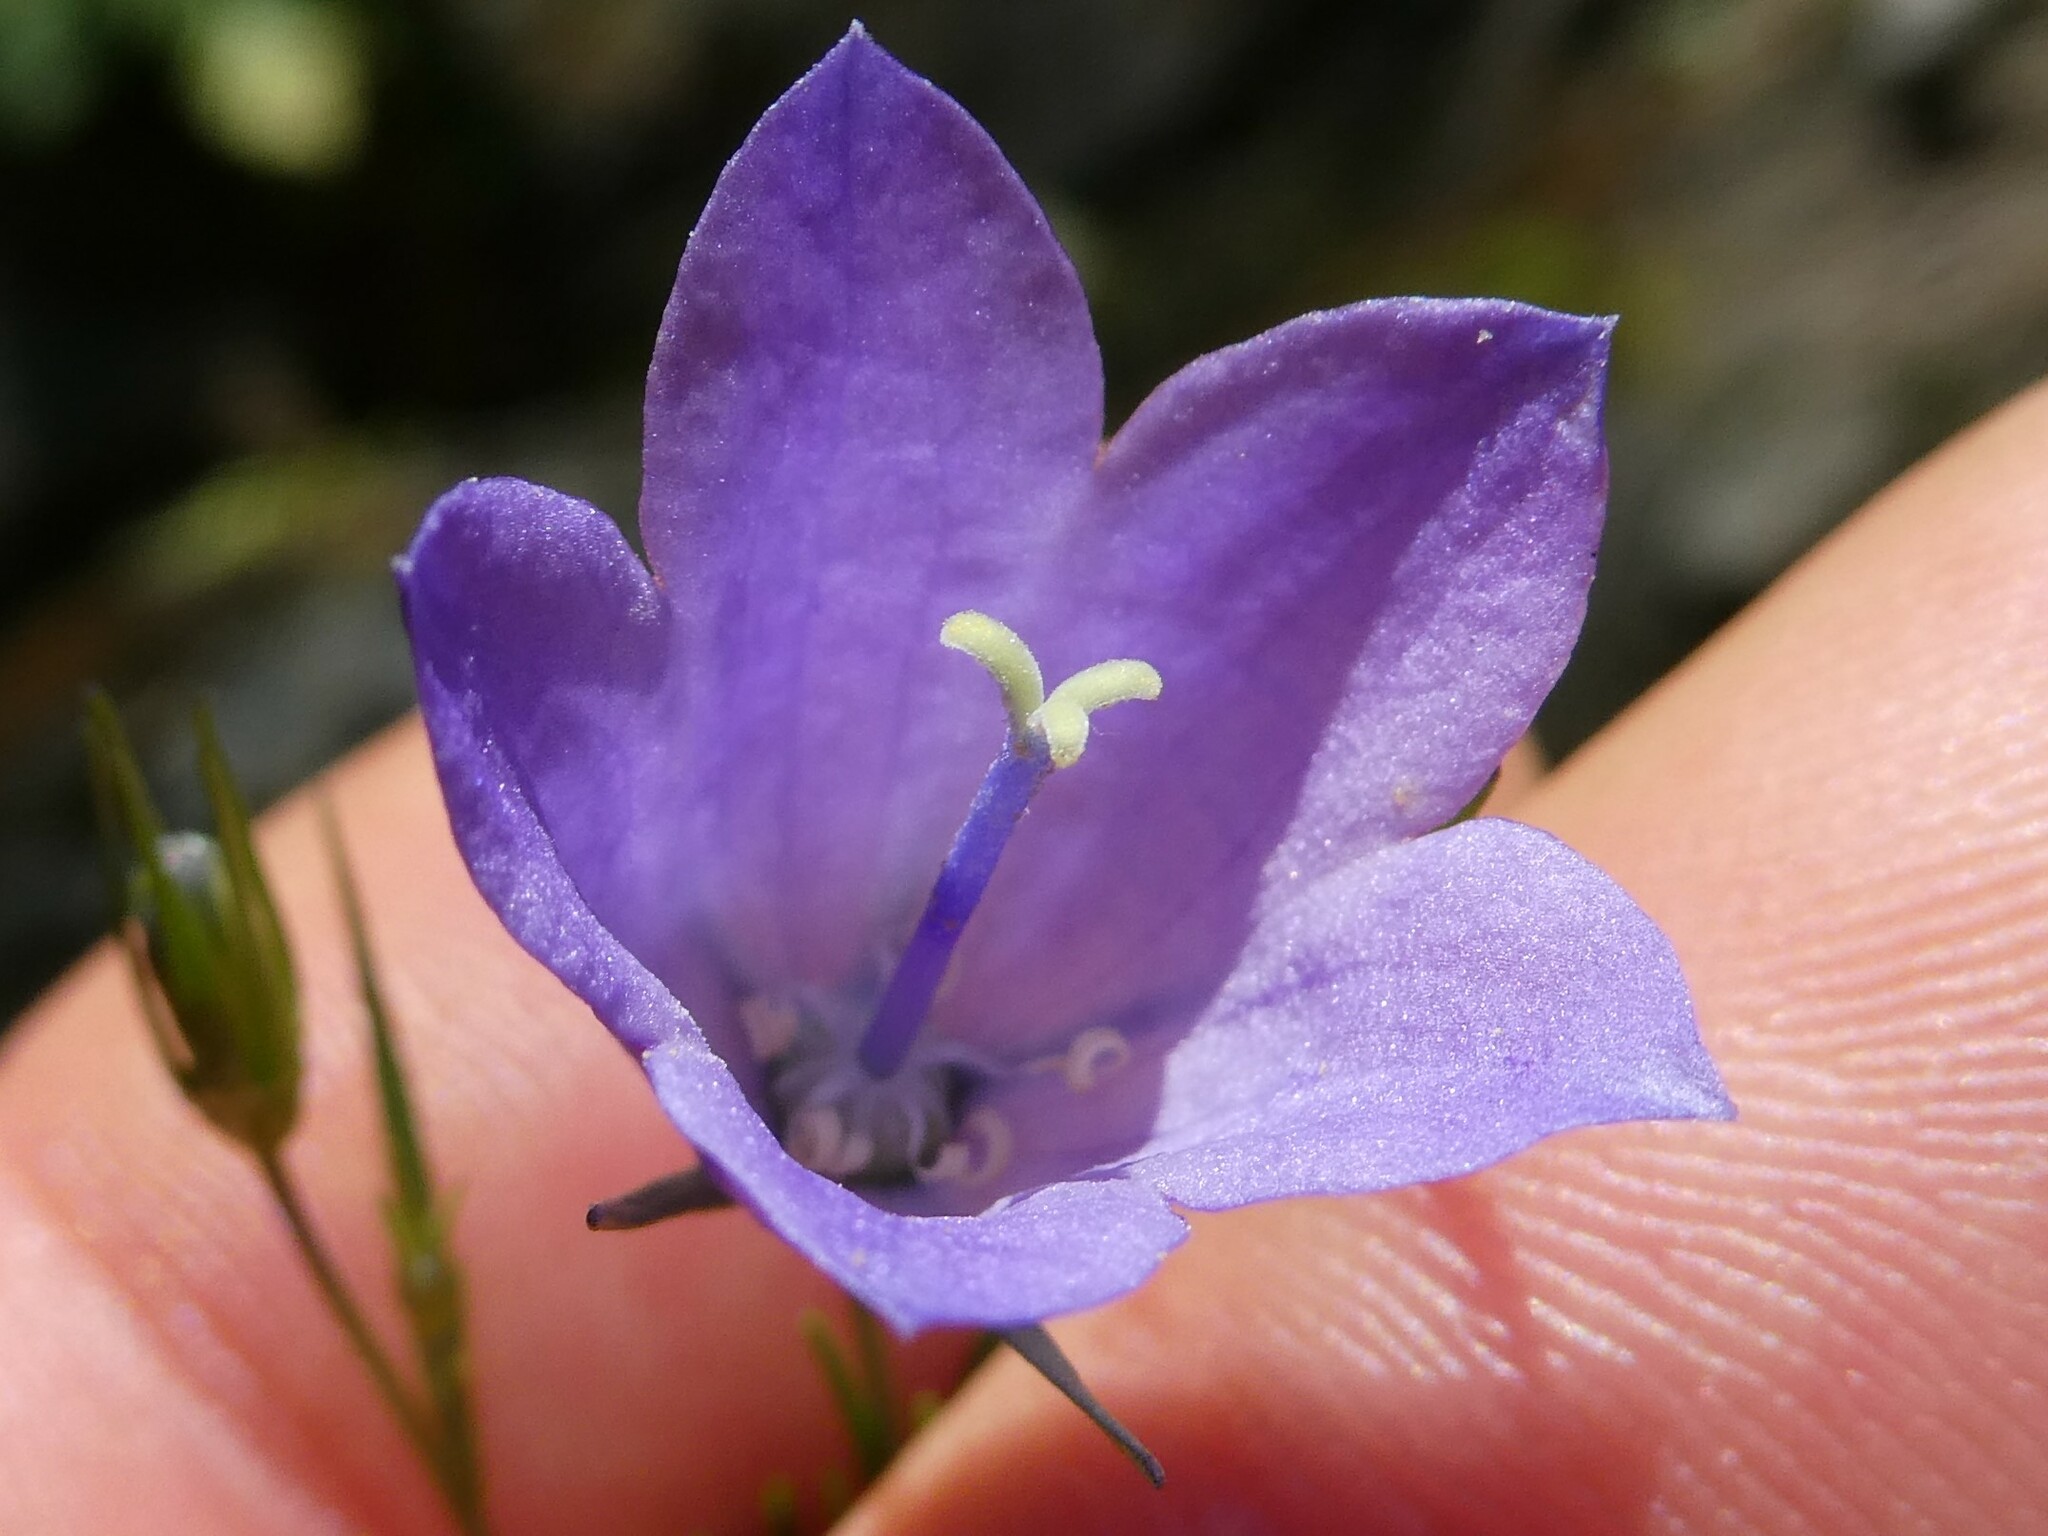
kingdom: Plantae
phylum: Tracheophyta
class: Magnoliopsida
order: Asterales
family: Campanulaceae
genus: Campanula
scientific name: Campanula intercedens
